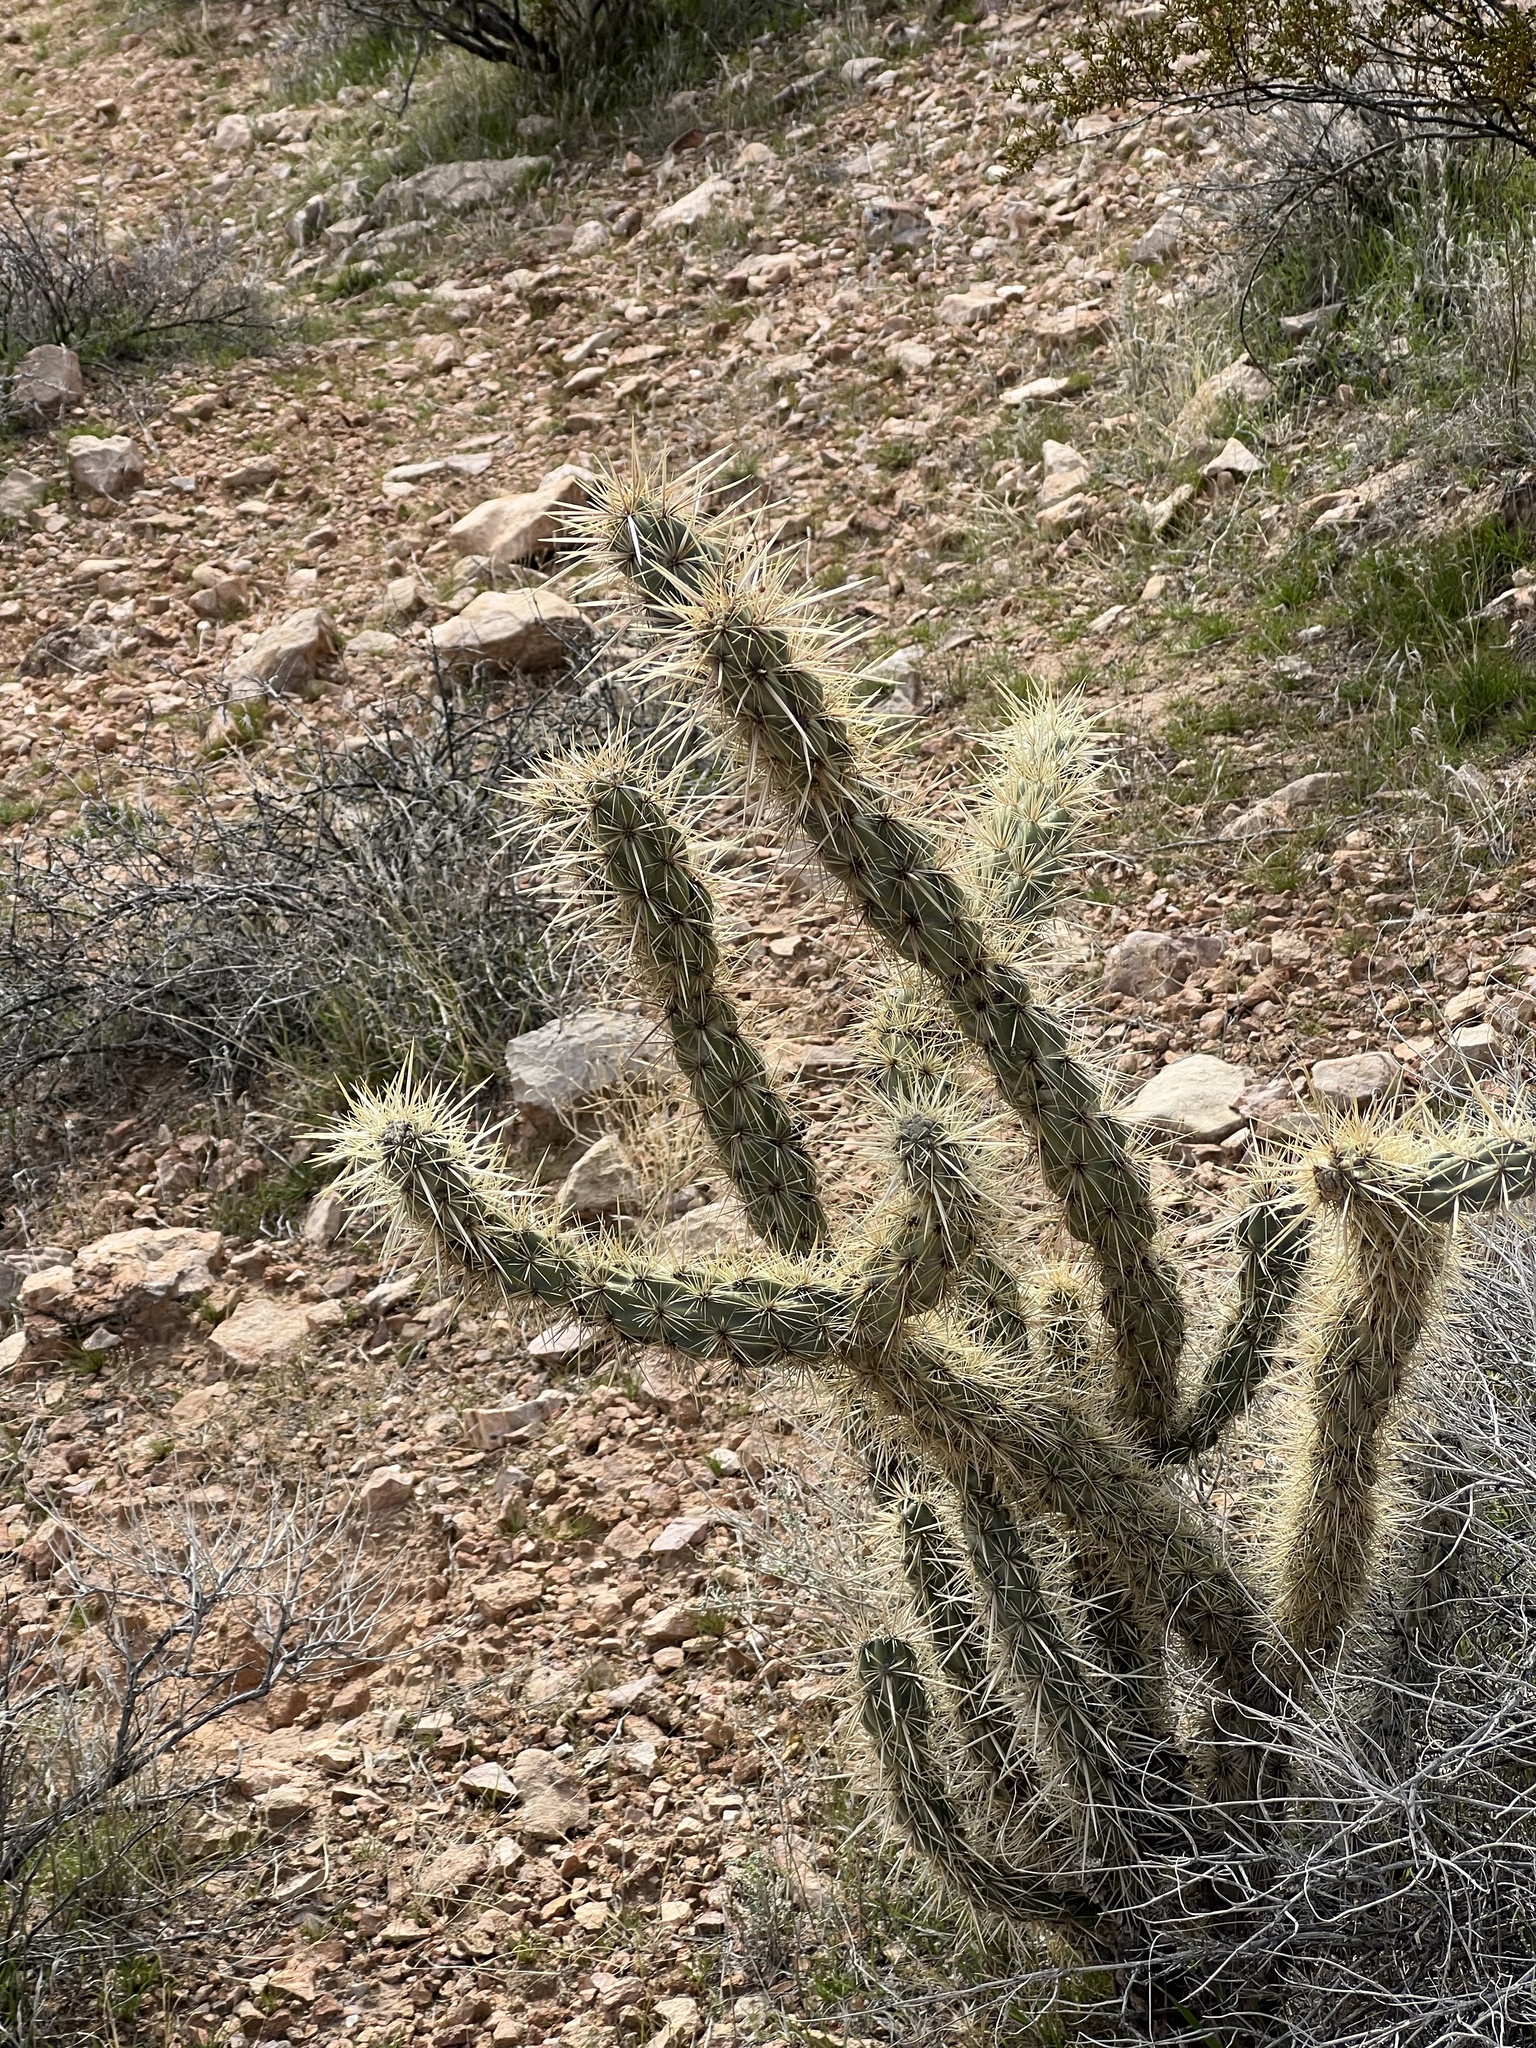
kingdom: Plantae
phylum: Tracheophyta
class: Magnoliopsida
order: Caryophyllales
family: Cactaceae
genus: Cylindropuntia
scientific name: Cylindropuntia acanthocarpa
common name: Buckhorn cholla
